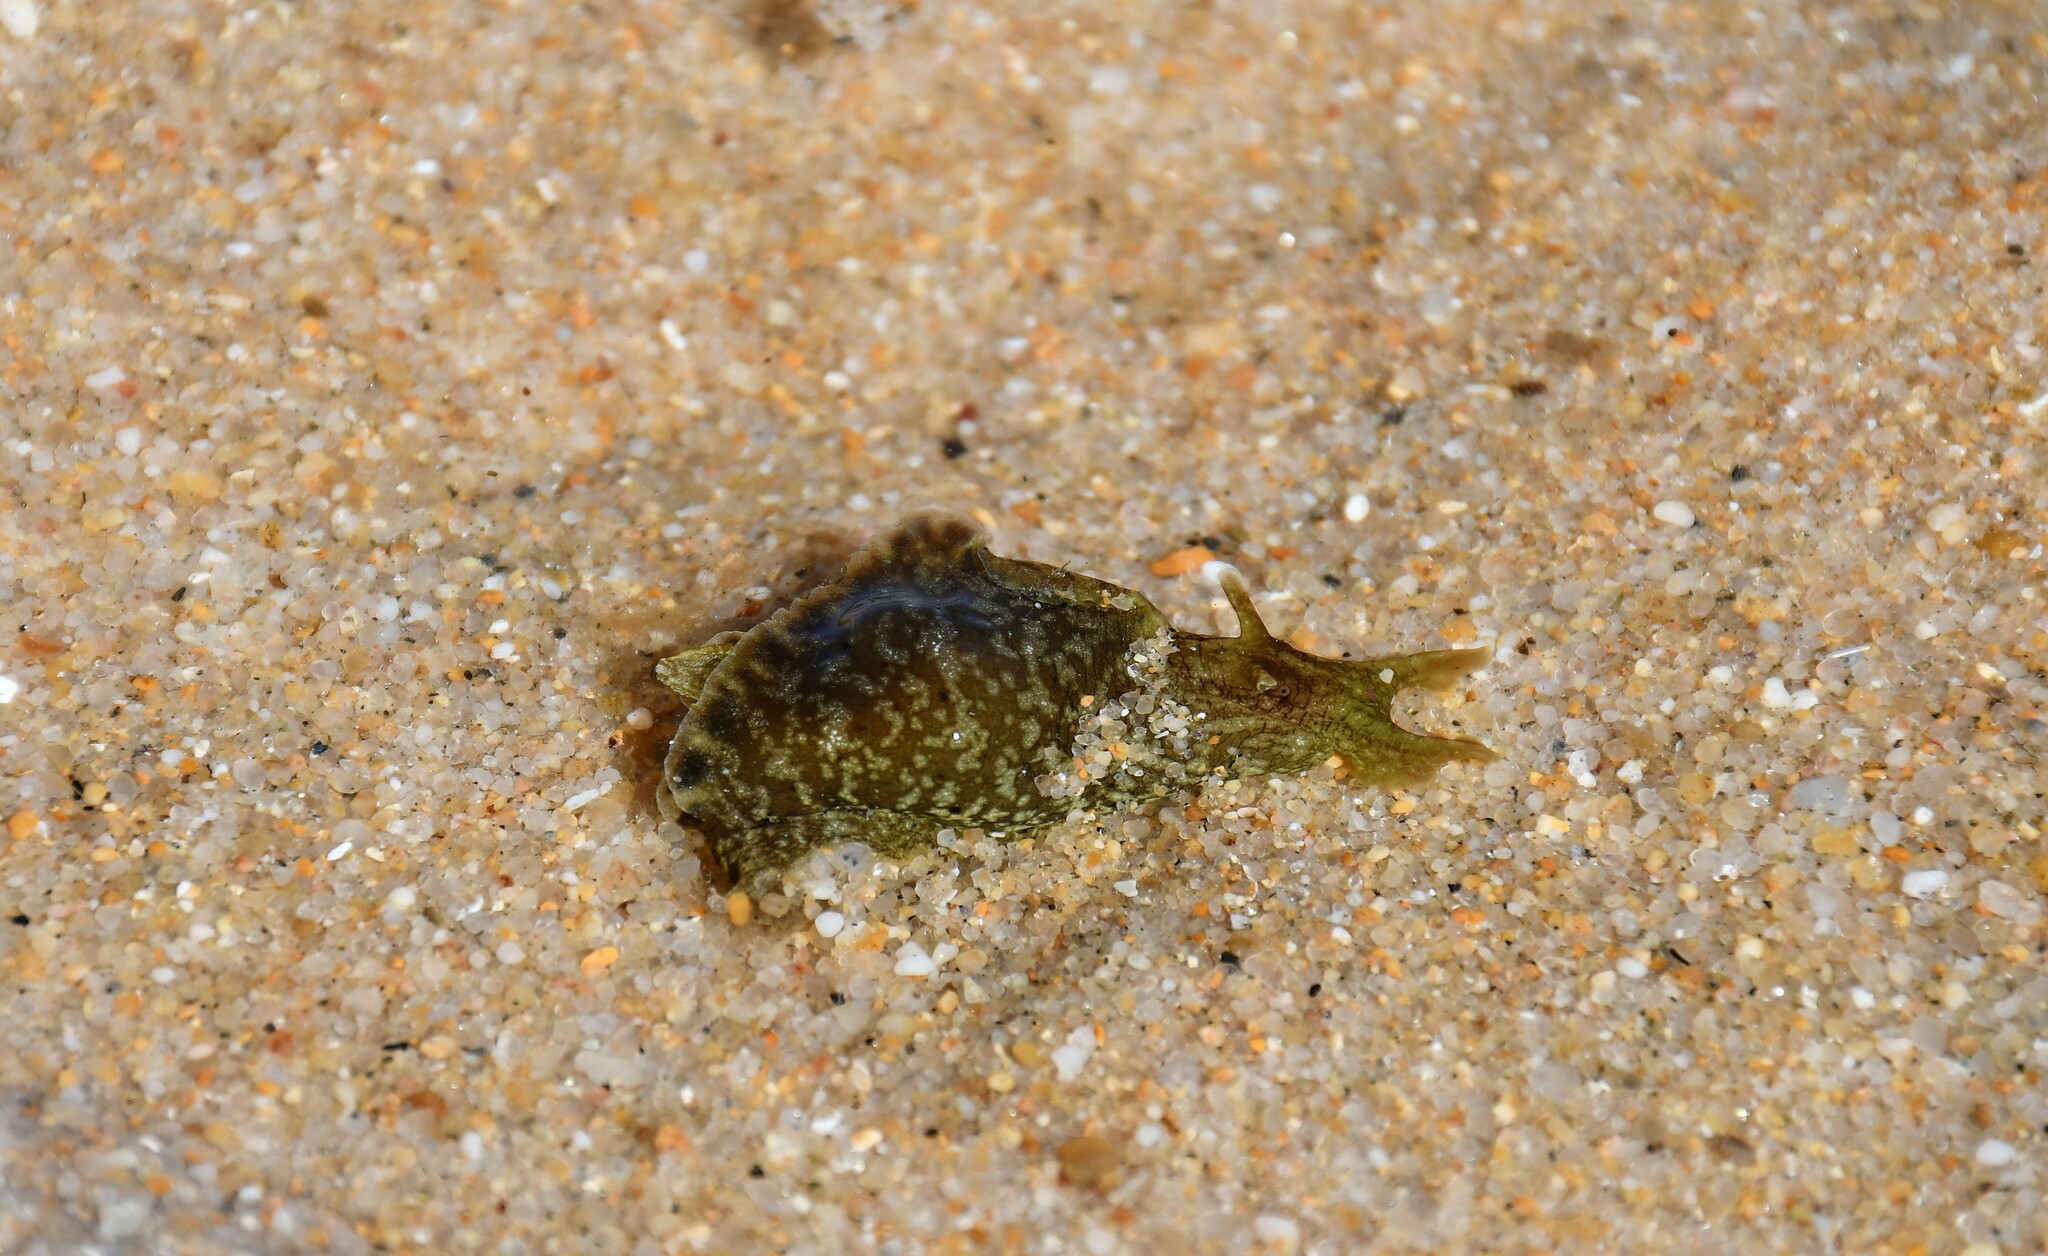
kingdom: Animalia
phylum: Mollusca
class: Gastropoda
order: Aplysiida
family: Aplysiidae
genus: Aplysia
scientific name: Aplysia fasciata
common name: Banded sea hare
